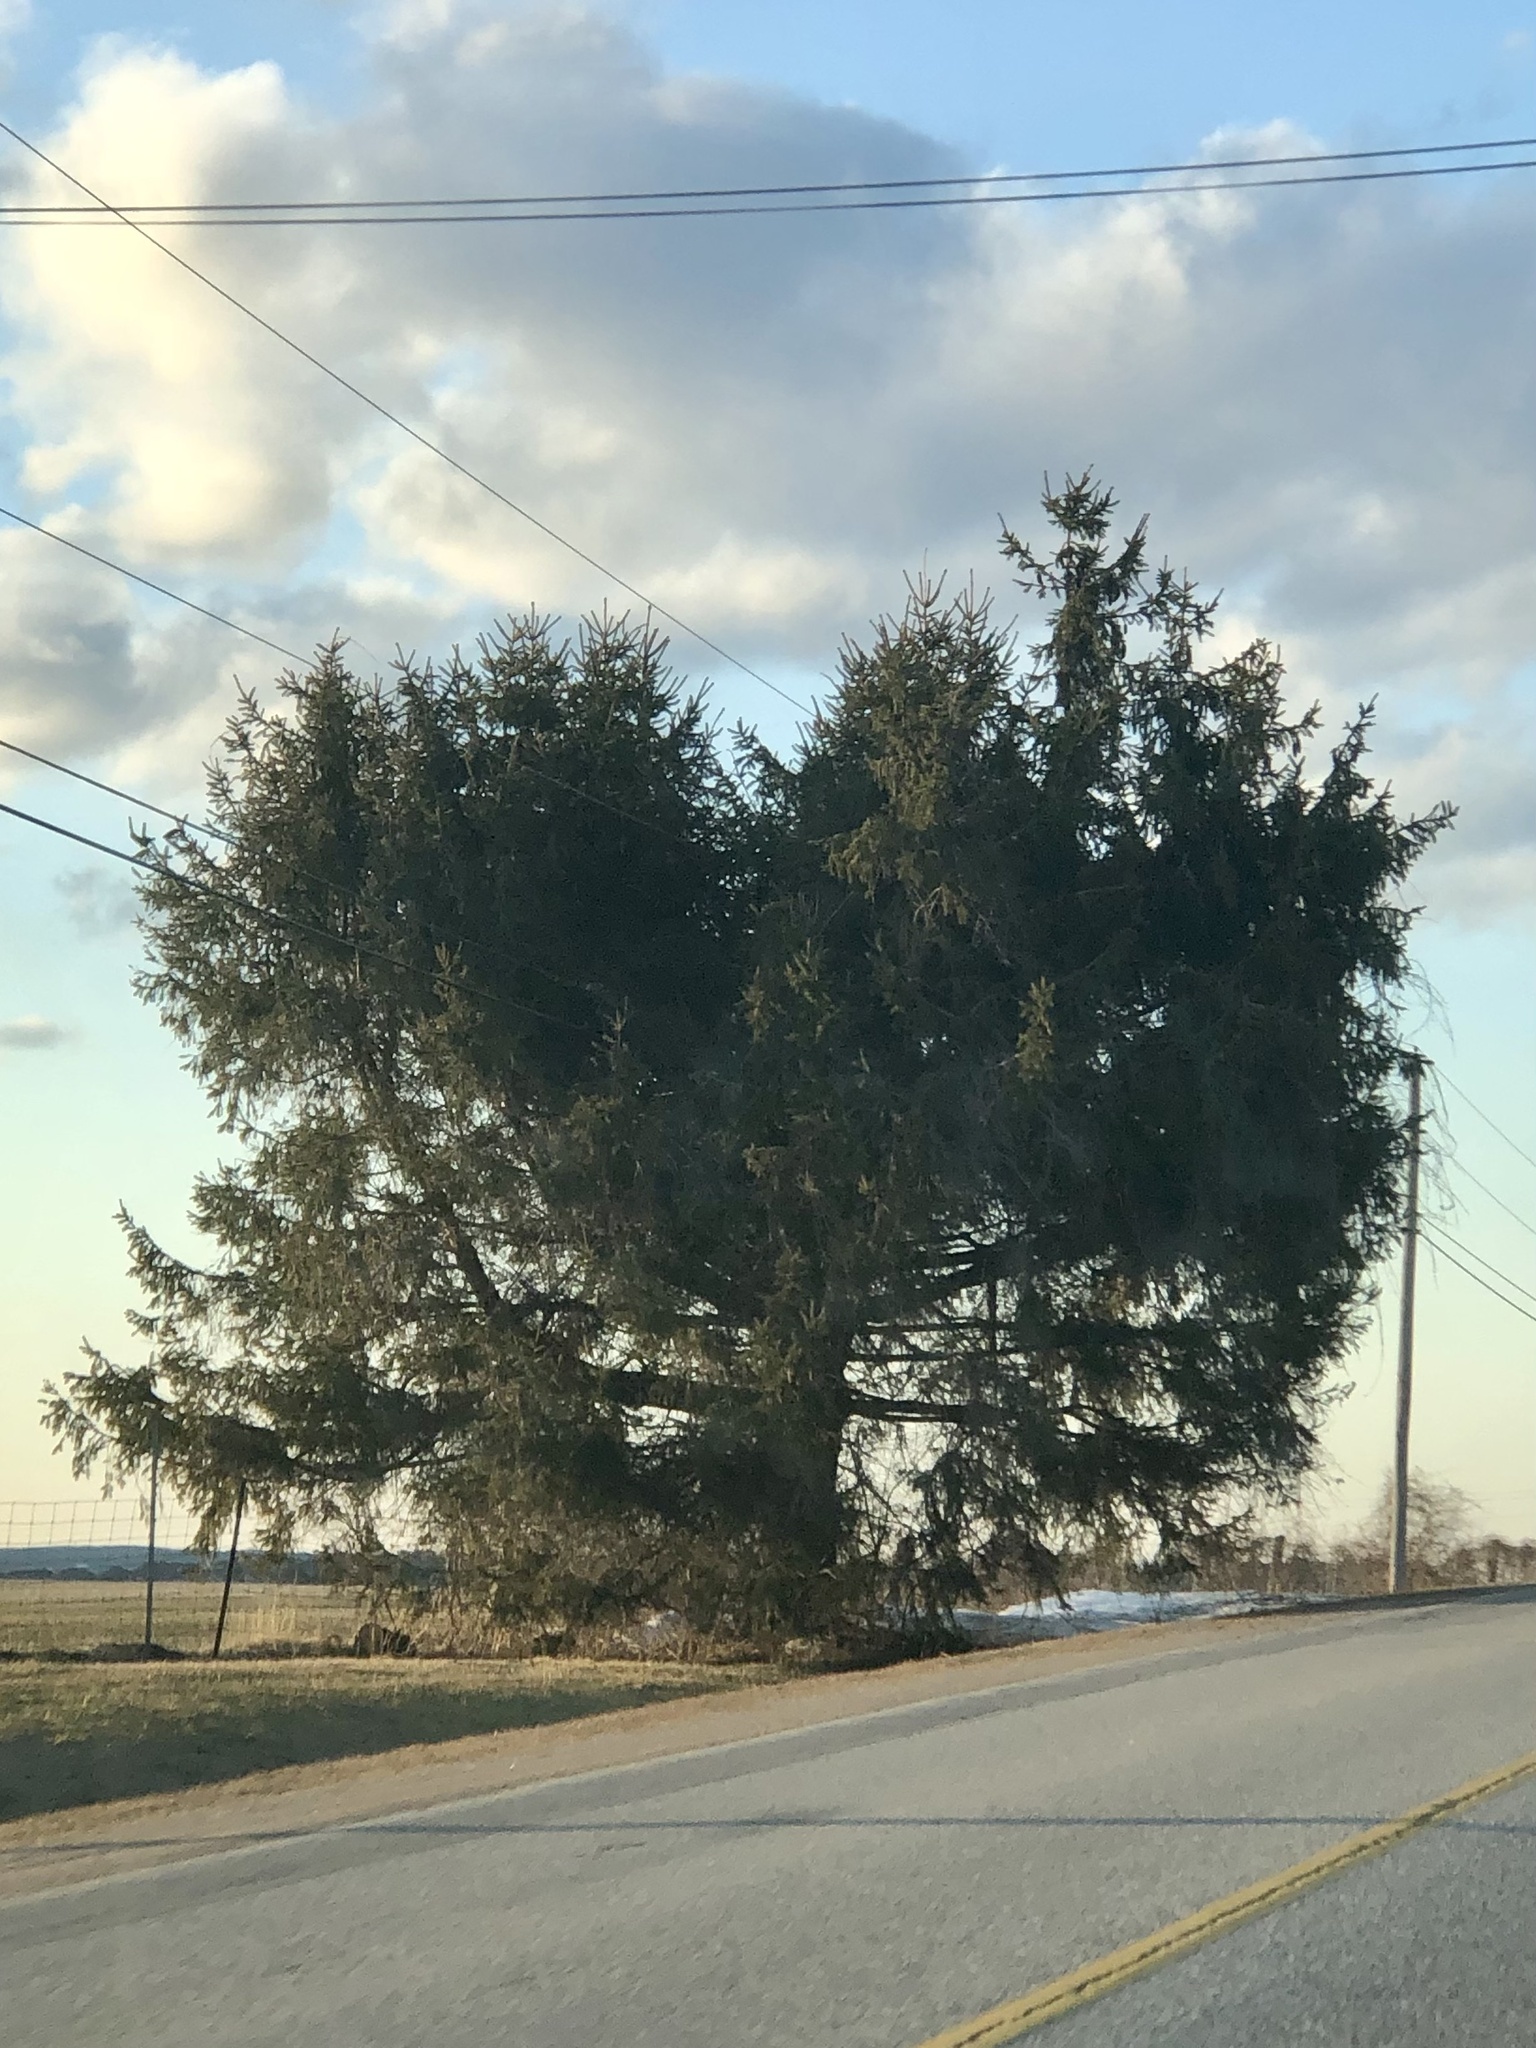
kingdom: Plantae
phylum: Tracheophyta
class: Pinopsida
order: Pinales
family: Pinaceae
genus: Picea
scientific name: Picea abies
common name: Norway spruce
